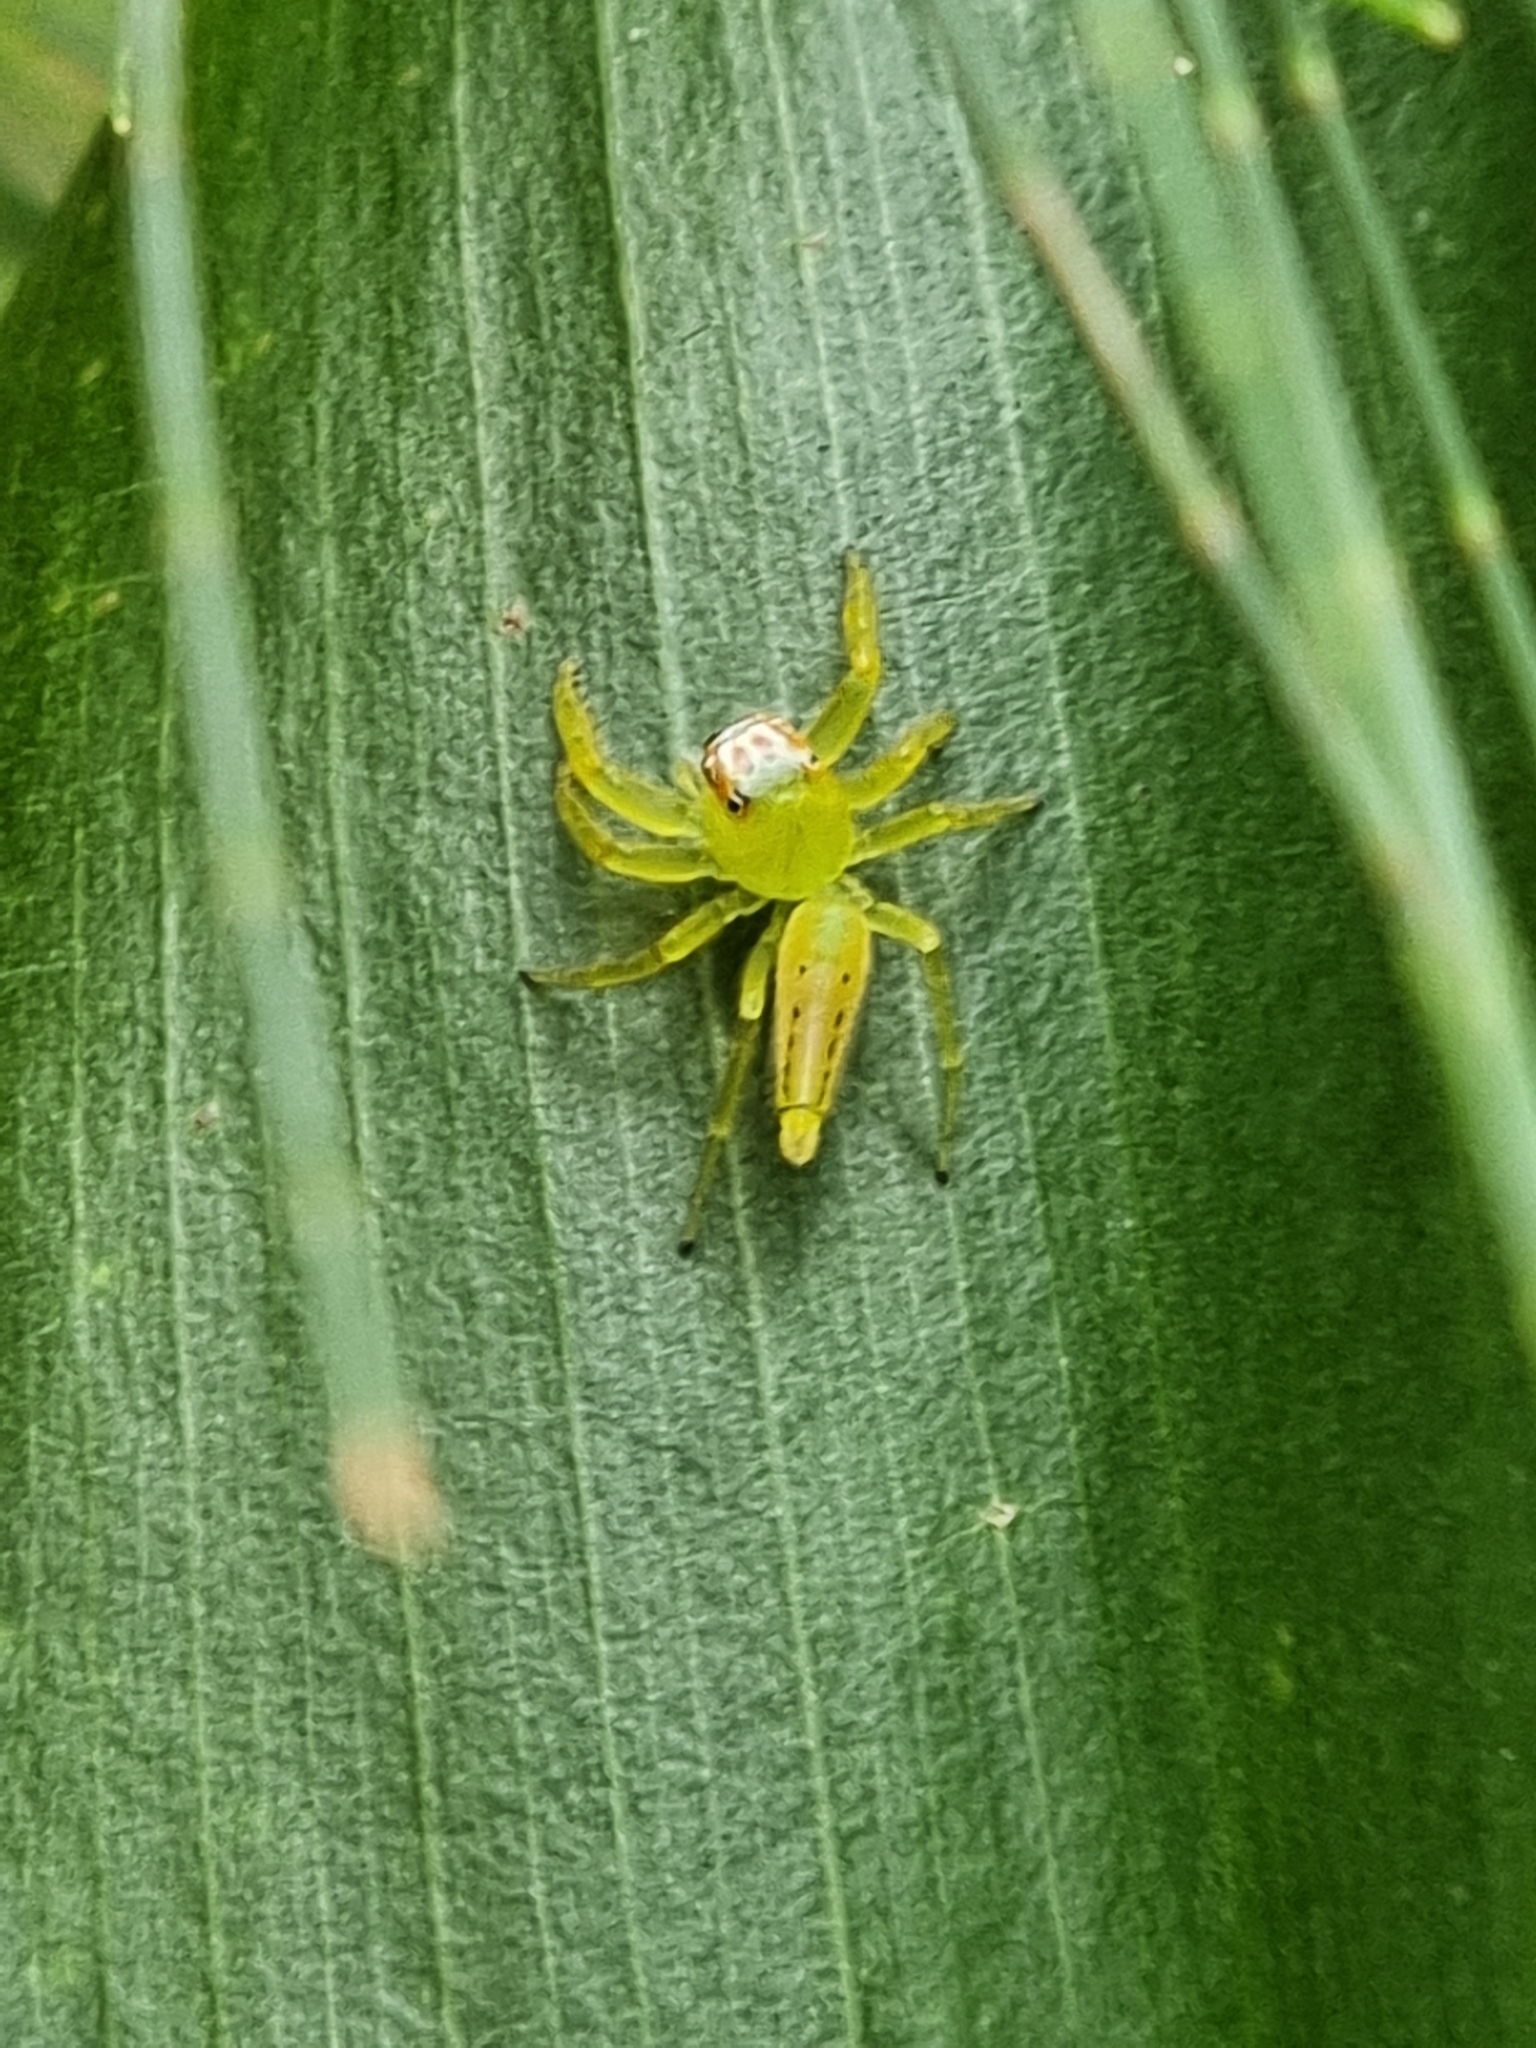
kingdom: Animalia
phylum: Arthropoda
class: Arachnida
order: Araneae
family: Salticidae
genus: Mopsus
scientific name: Mopsus mormon
